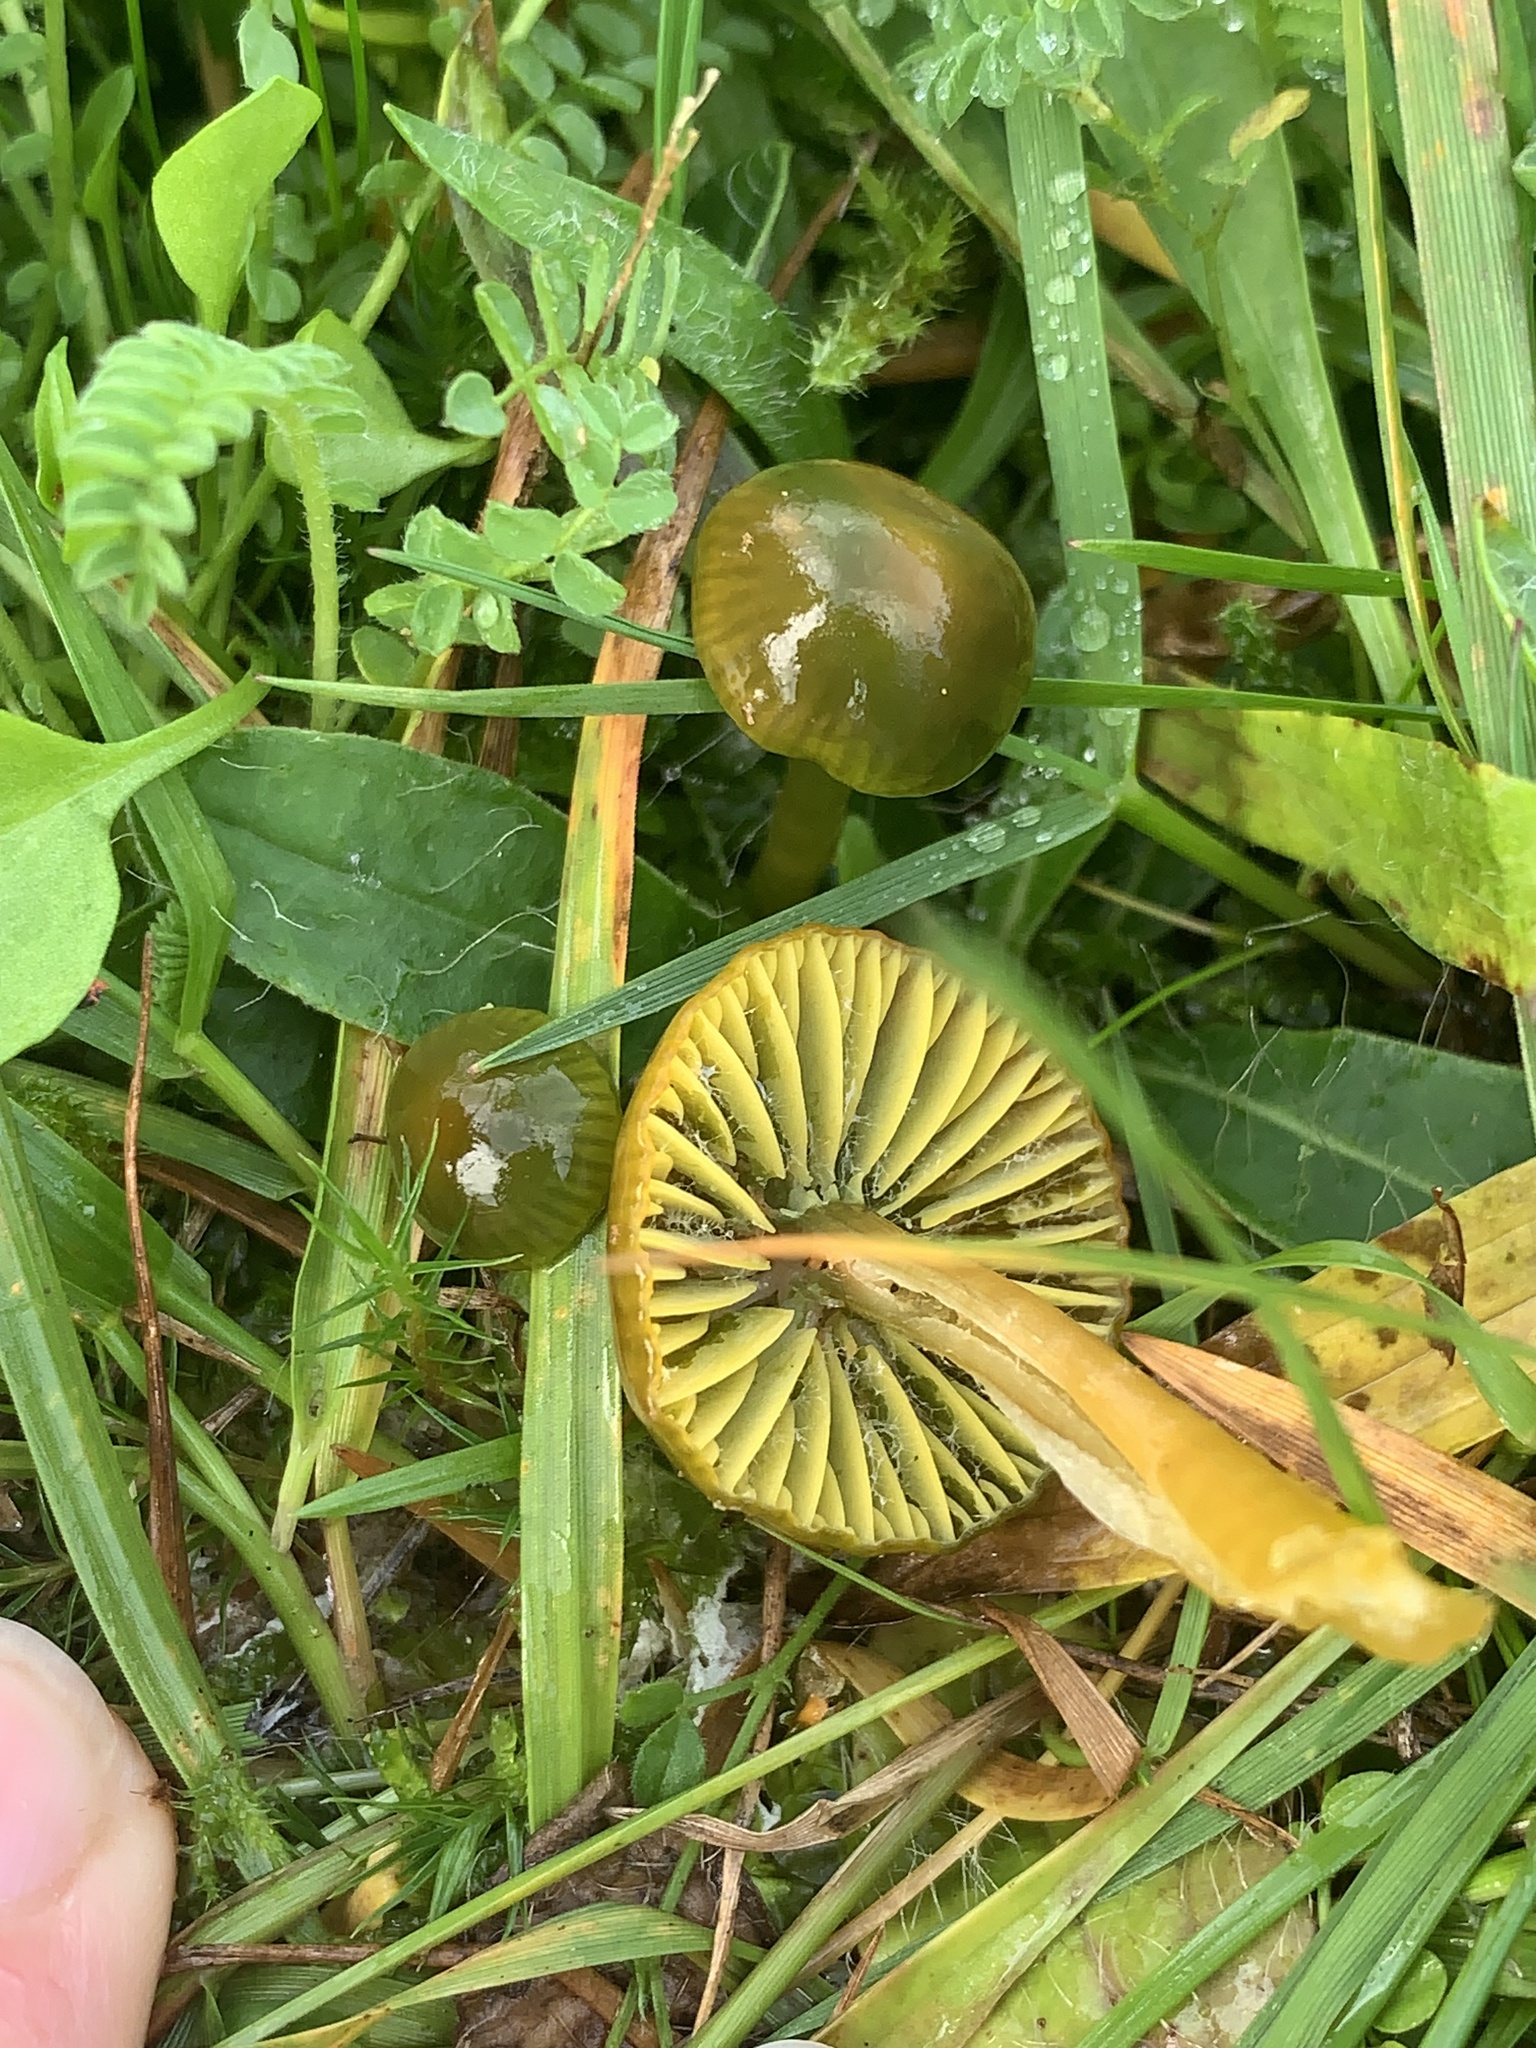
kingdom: Fungi
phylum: Basidiomycota
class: Agaricomycetes
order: Agaricales
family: Hygrophoraceae
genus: Gliophorus
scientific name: Gliophorus psittacinus
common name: Parrot wax-cap
